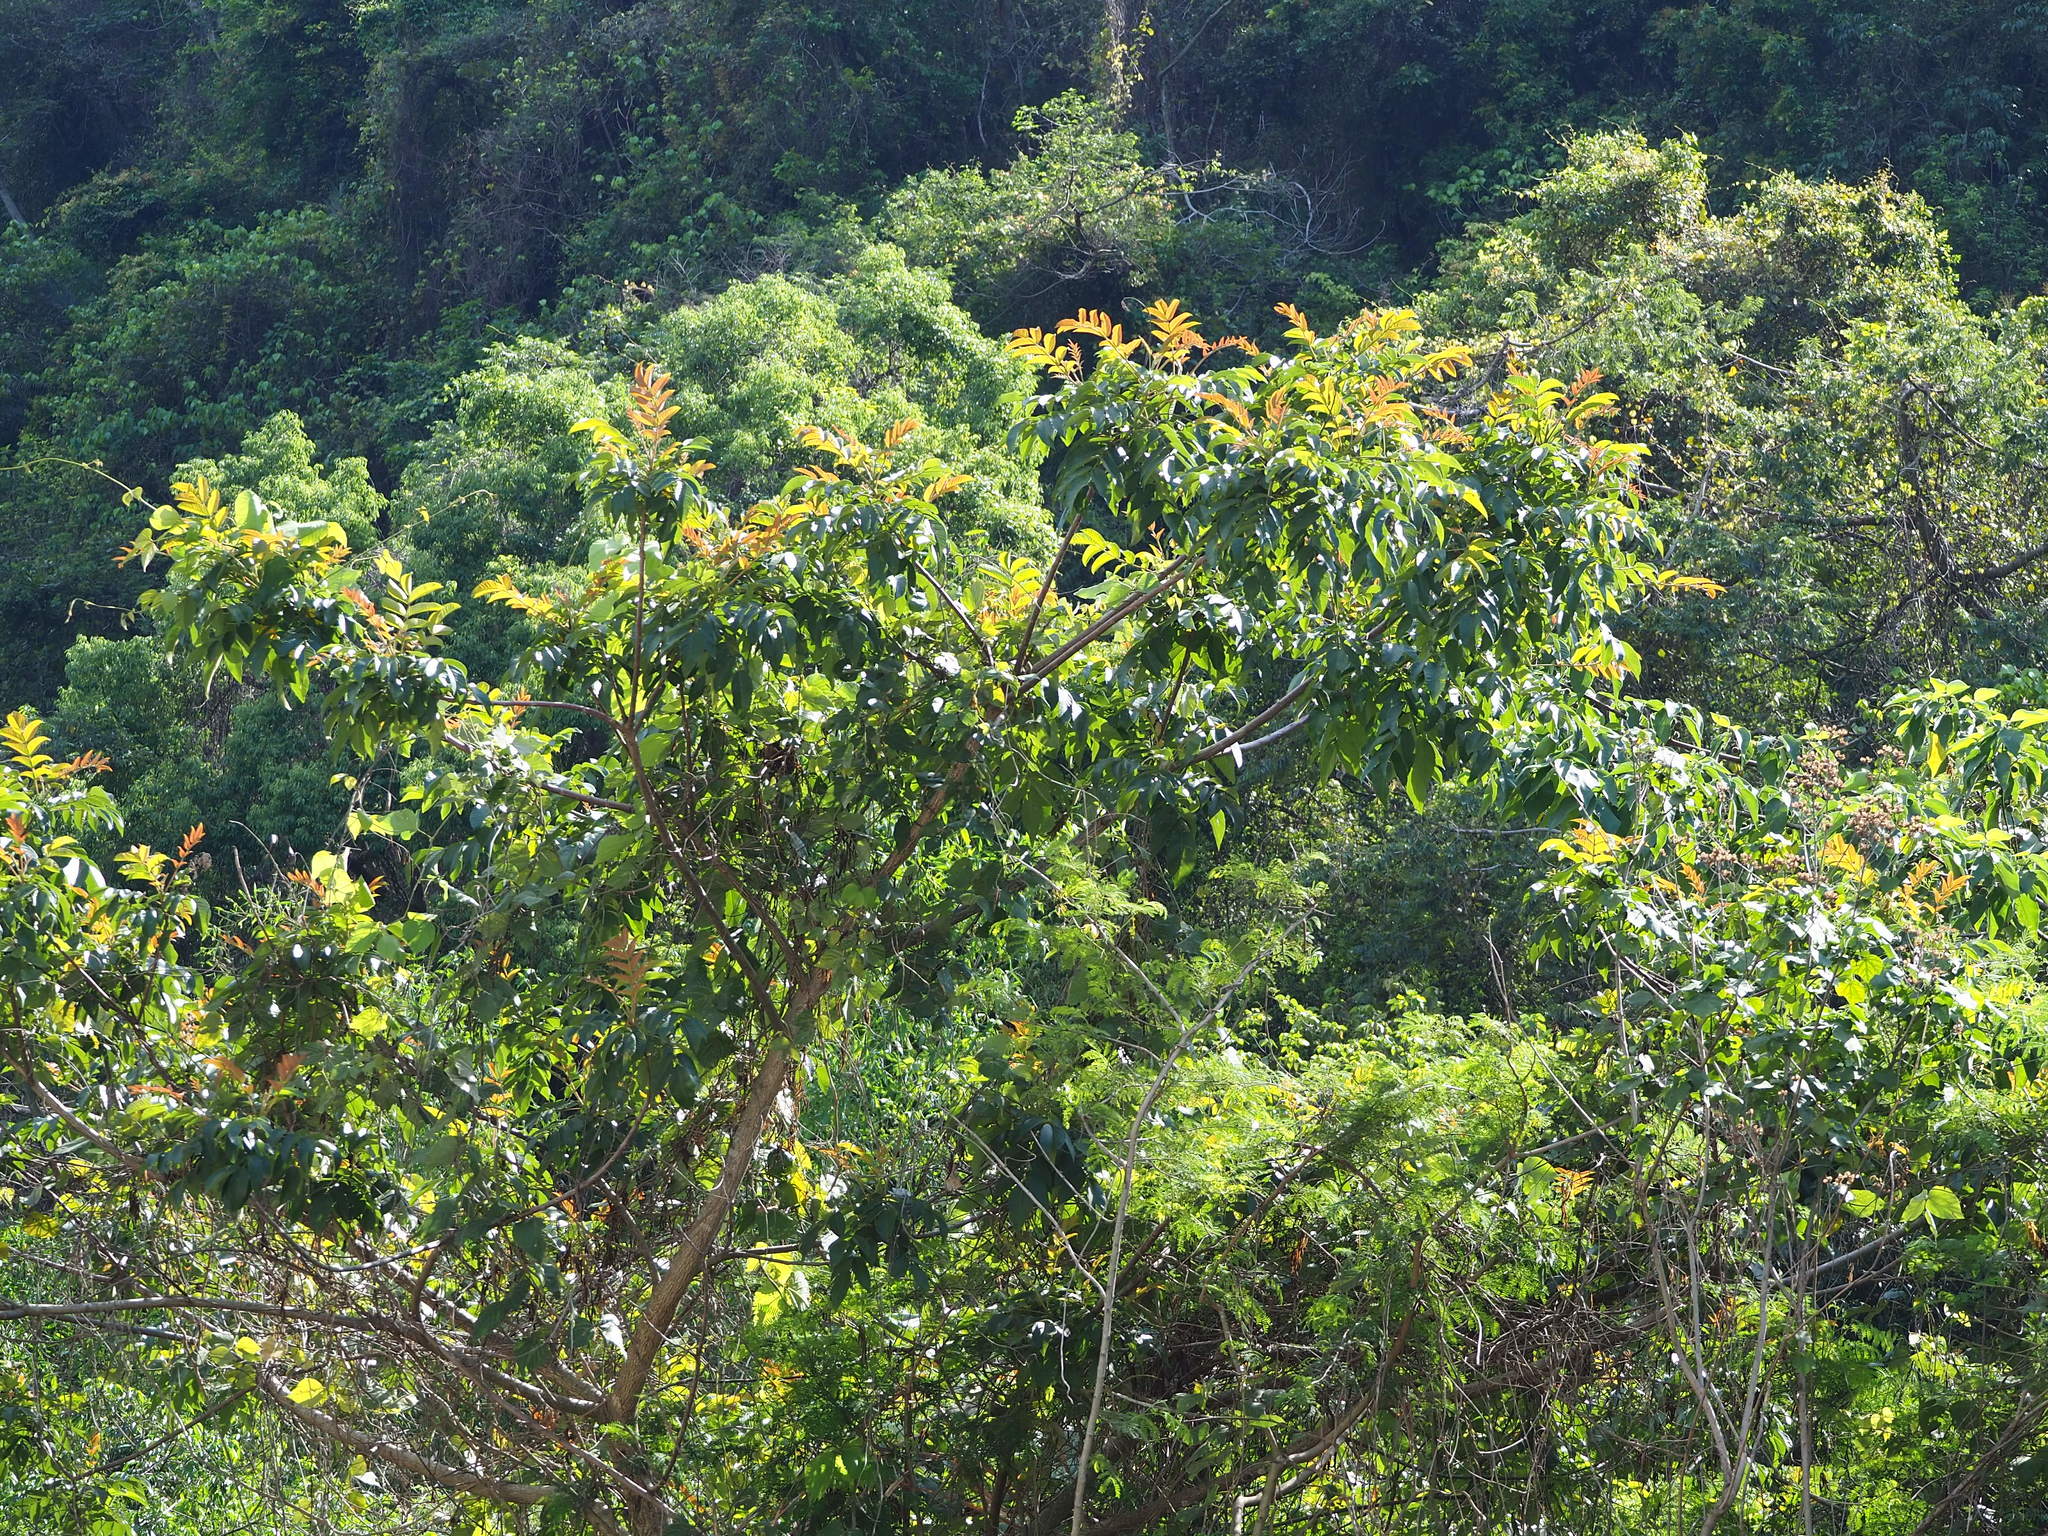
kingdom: Plantae
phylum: Tracheophyta
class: Magnoliopsida
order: Sapindales
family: Anacardiaceae
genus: Rhus
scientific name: Rhus chinensis
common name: Chinese gall
